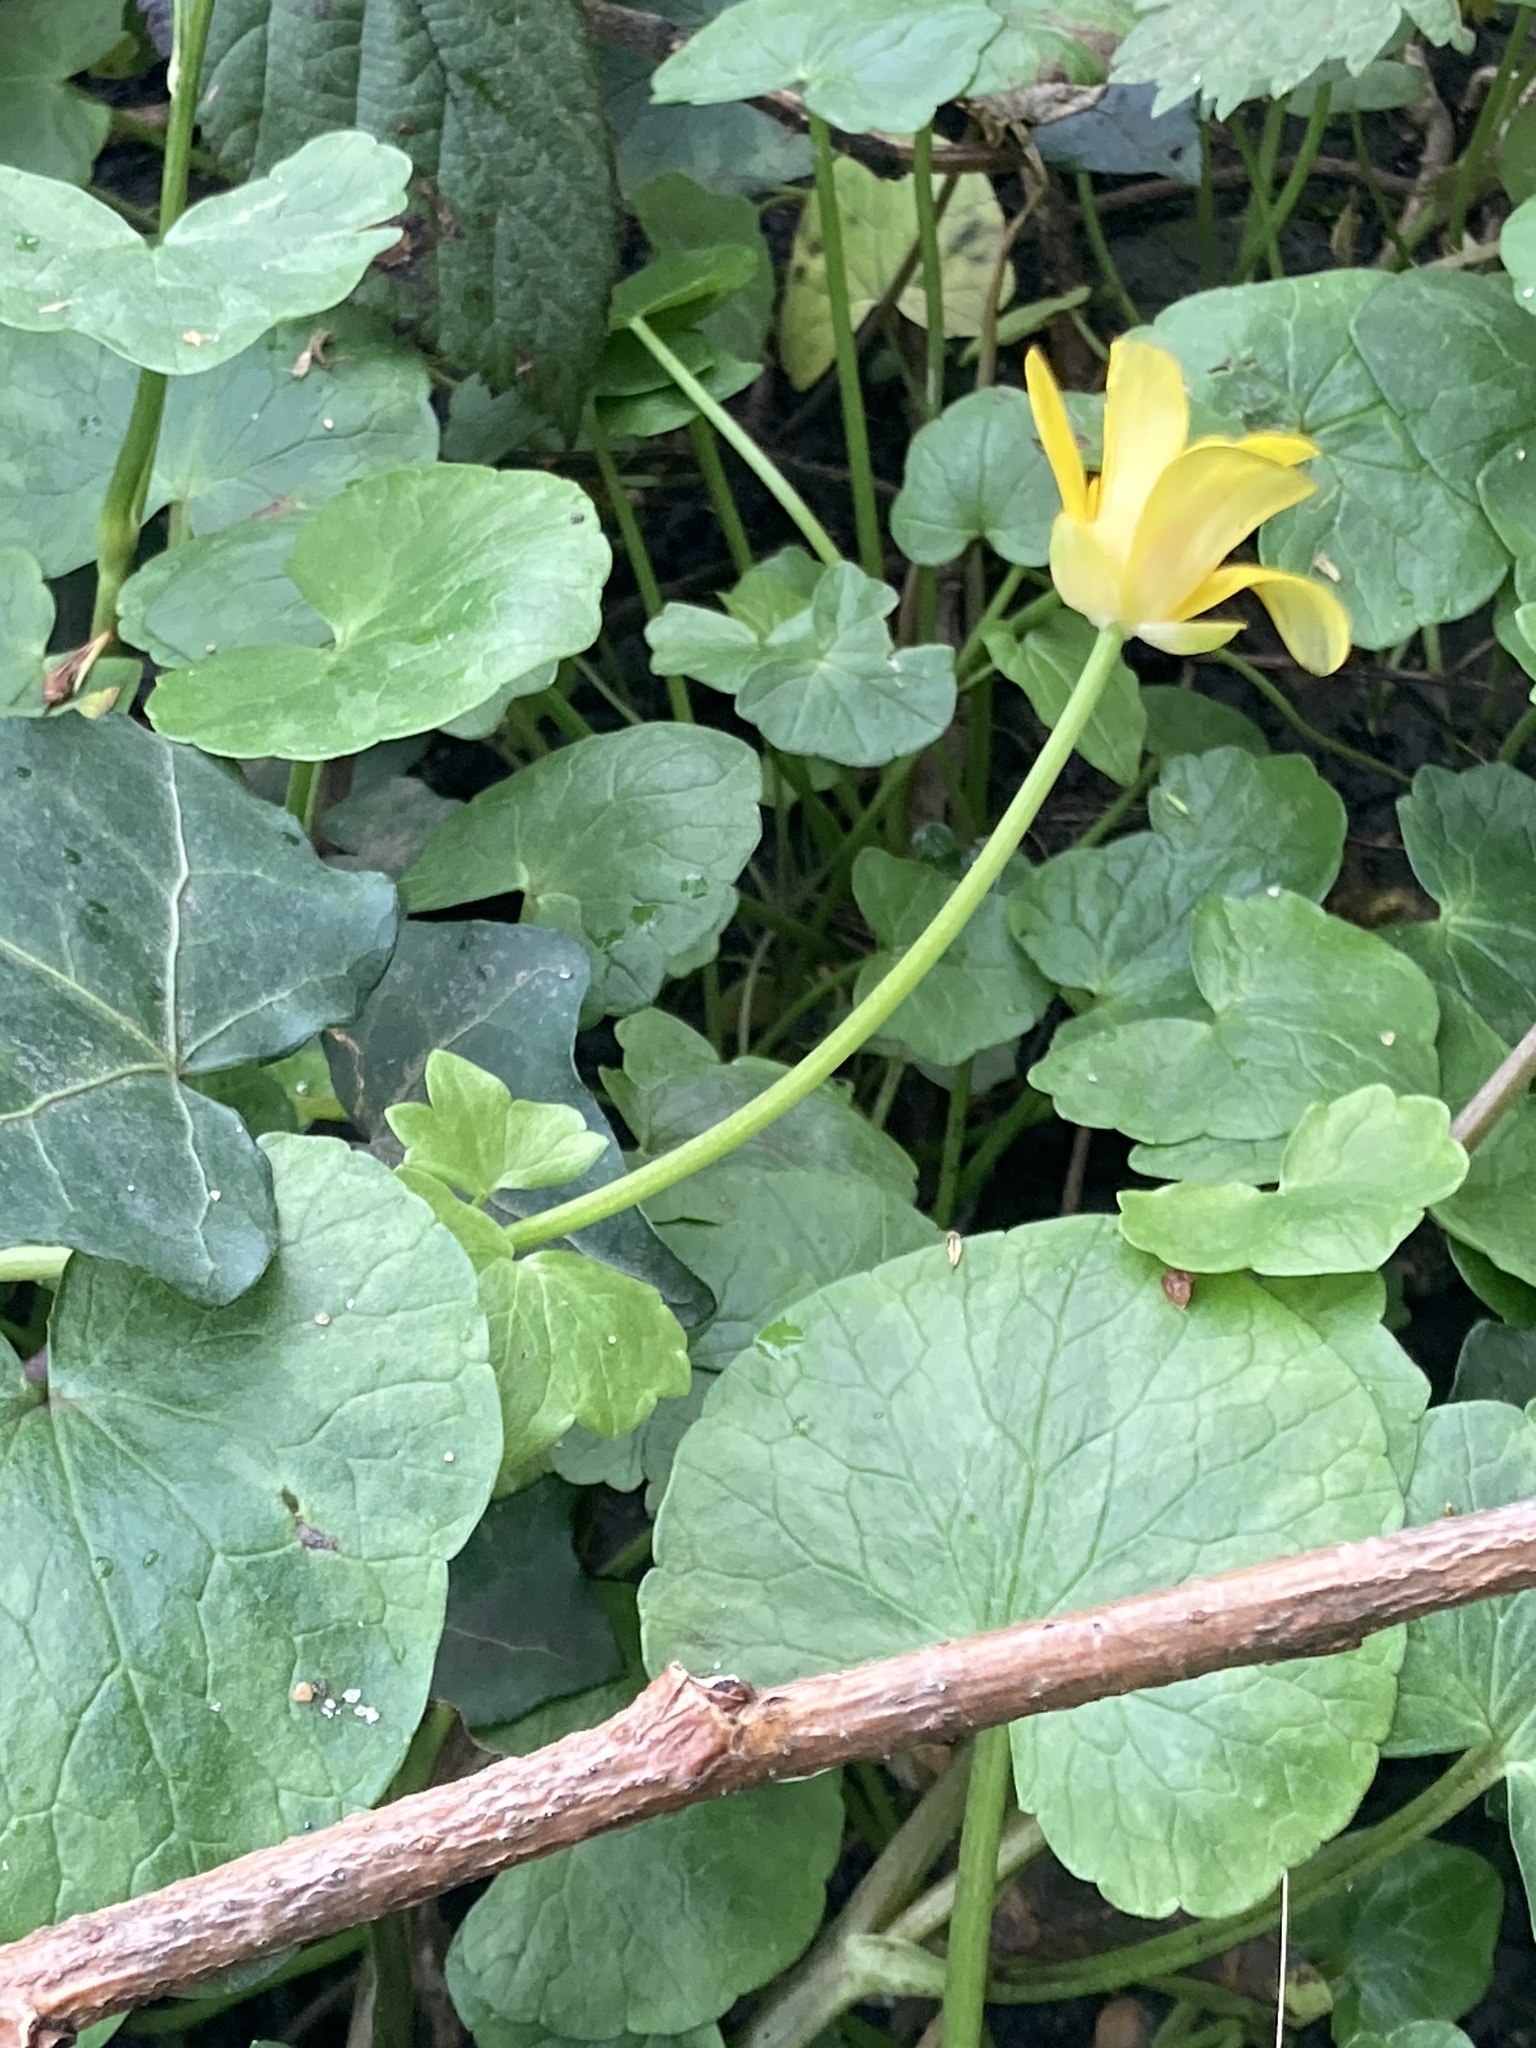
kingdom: Plantae
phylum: Tracheophyta
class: Magnoliopsida
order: Ranunculales
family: Ranunculaceae
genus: Ficaria
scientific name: Ficaria verna
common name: Lesser celandine
